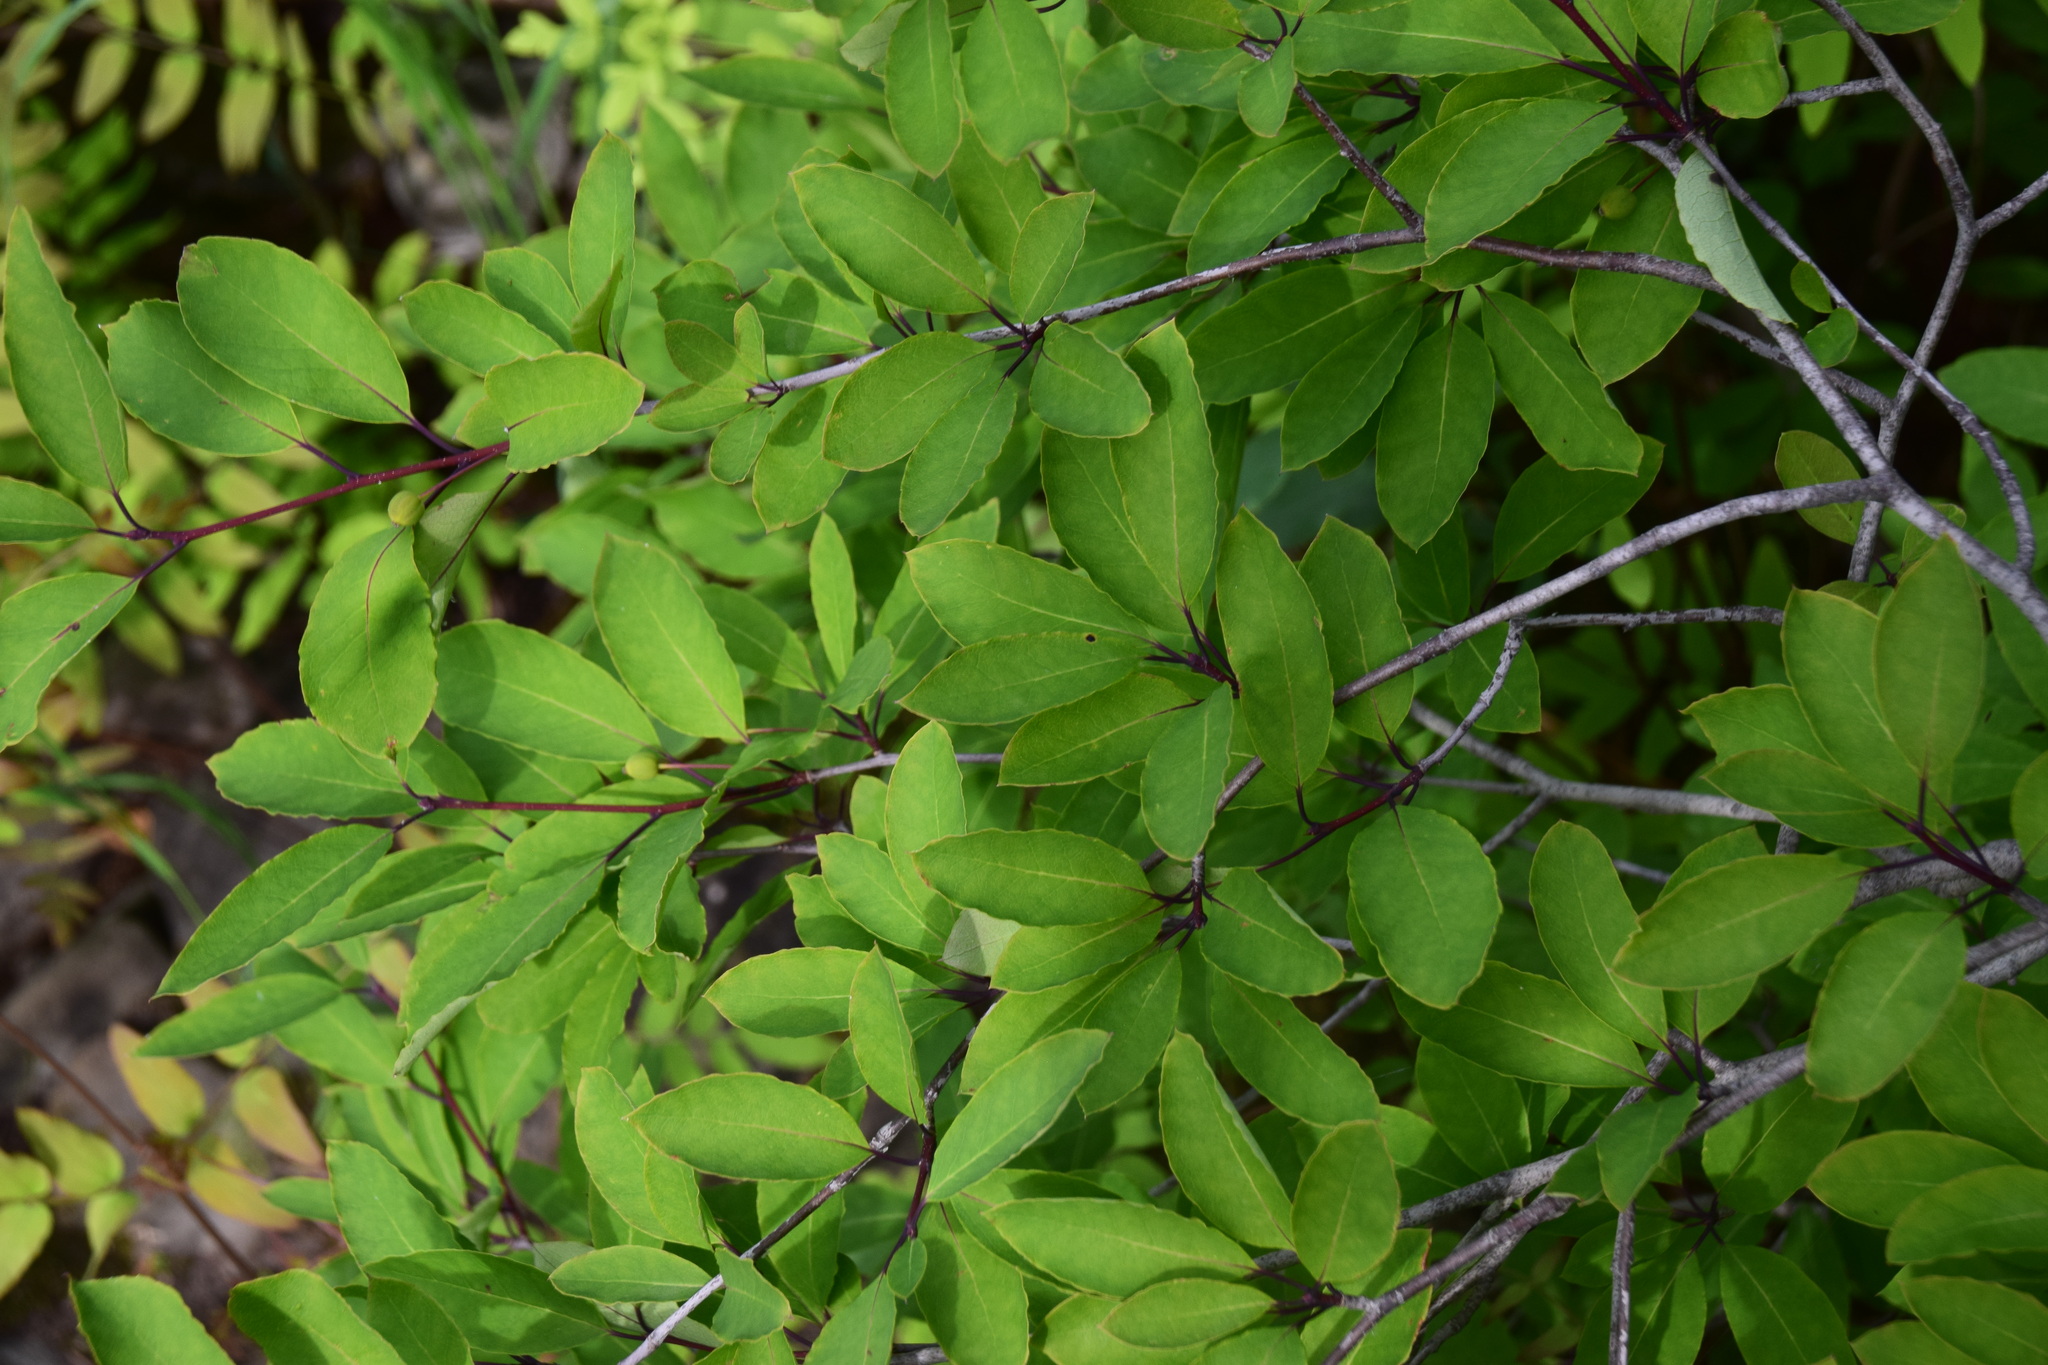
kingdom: Plantae
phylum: Tracheophyta
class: Magnoliopsida
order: Aquifoliales
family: Aquifoliaceae
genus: Ilex
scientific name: Ilex mucronata
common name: Catberry
